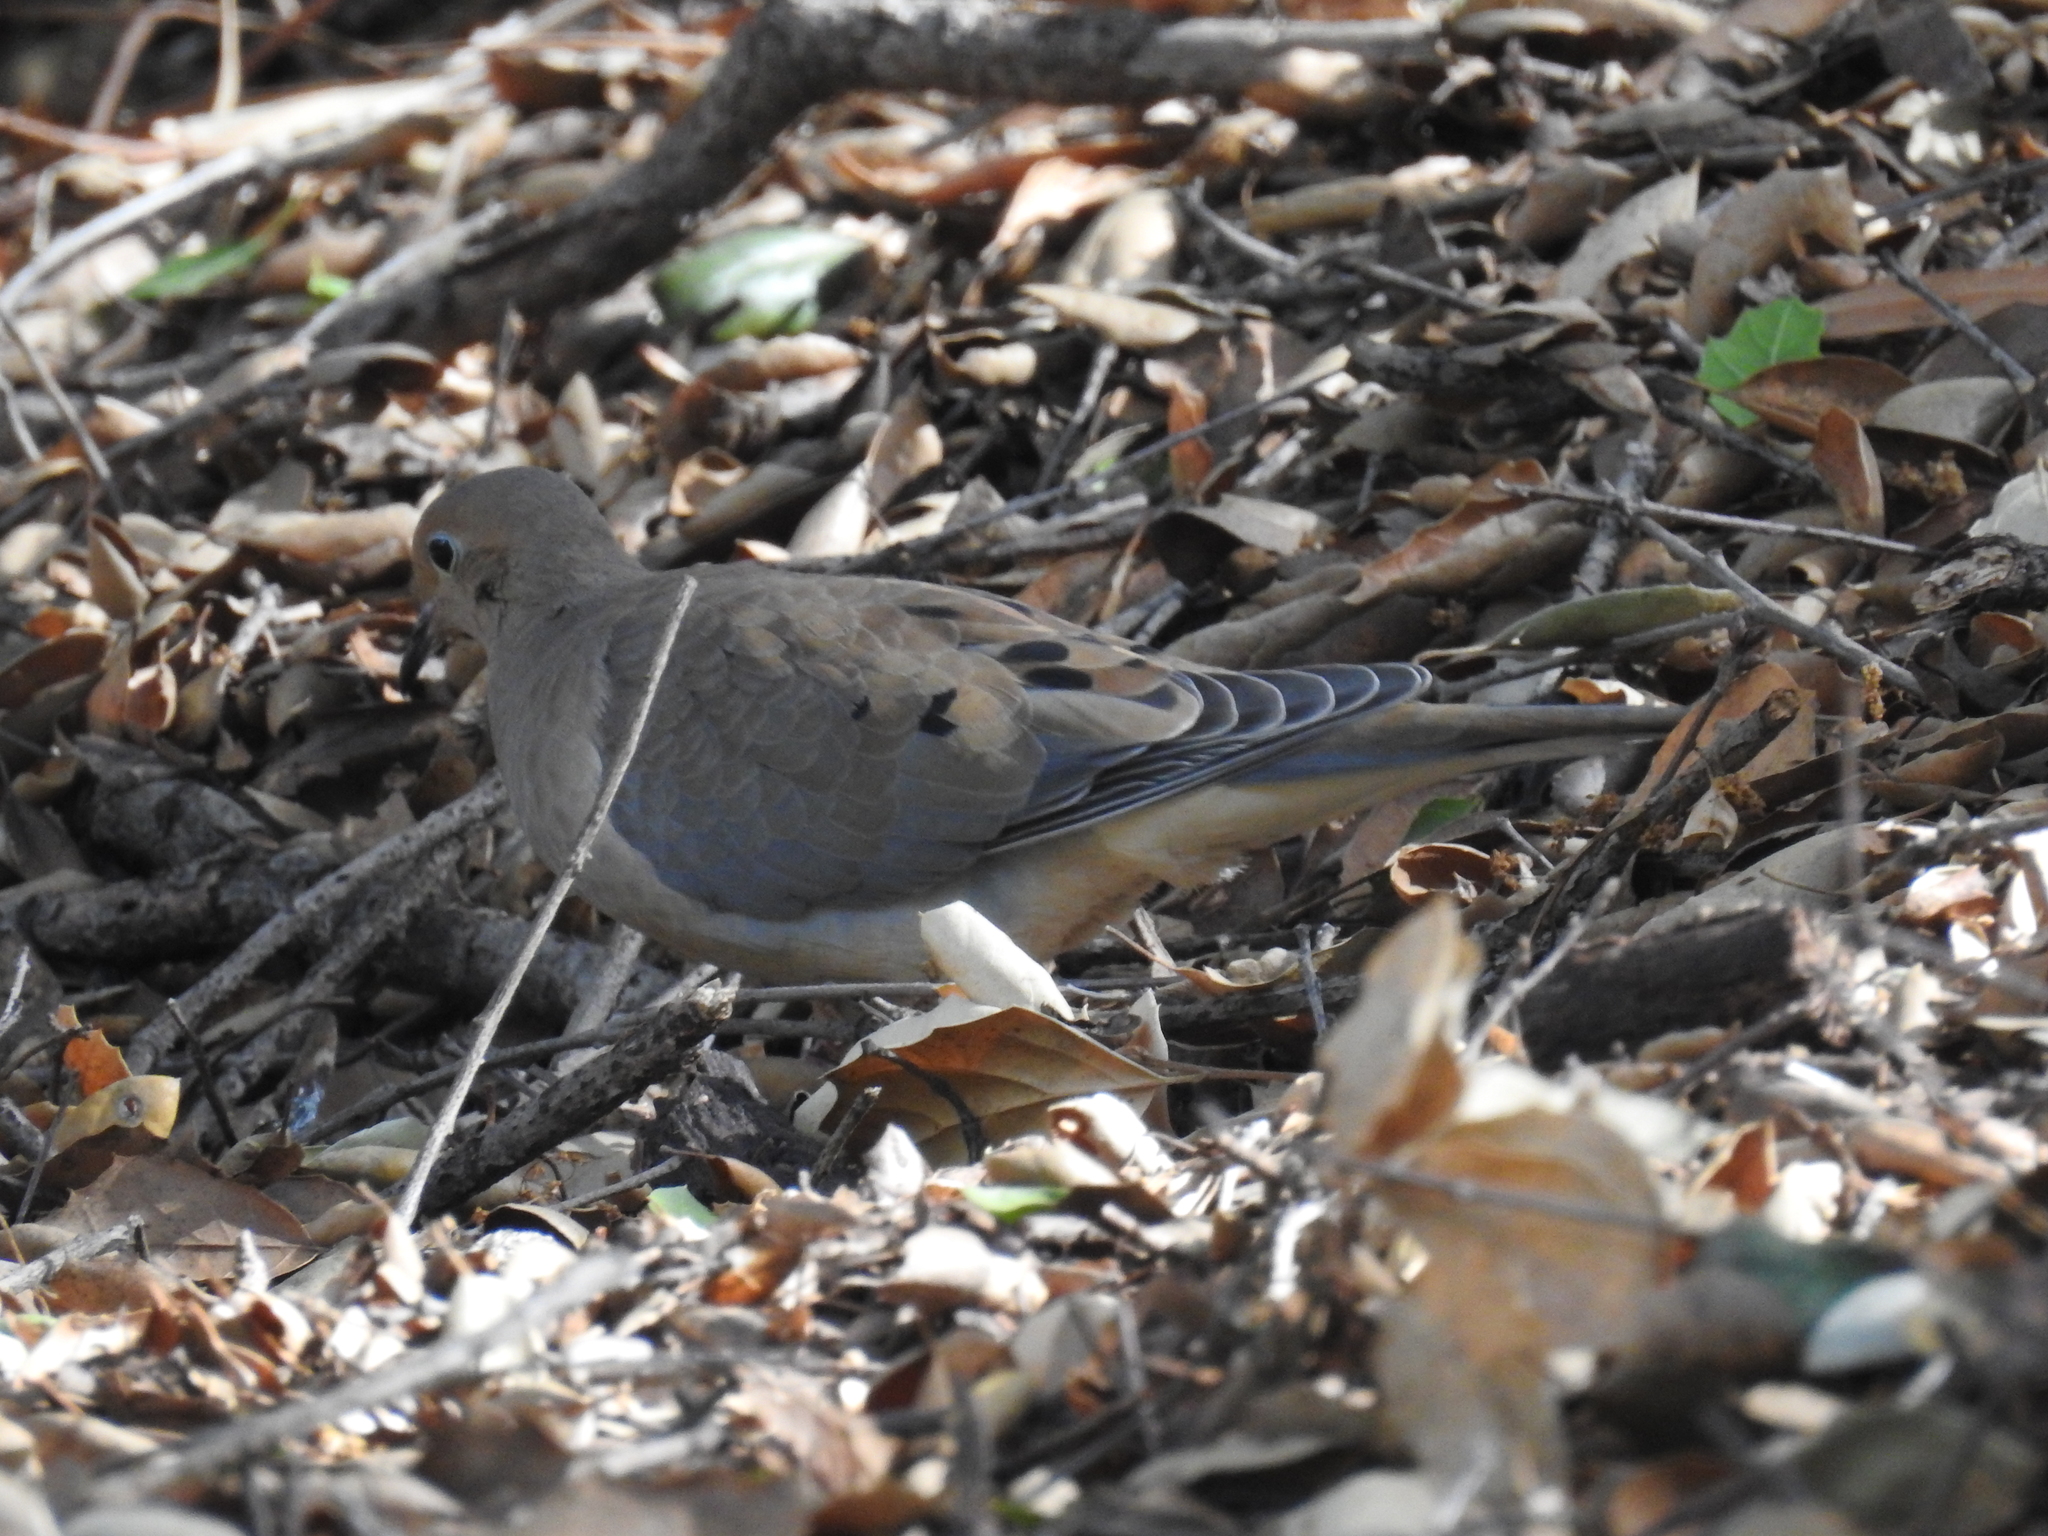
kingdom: Animalia
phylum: Chordata
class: Aves
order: Columbiformes
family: Columbidae
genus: Zenaida
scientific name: Zenaida macroura
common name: Mourning dove
